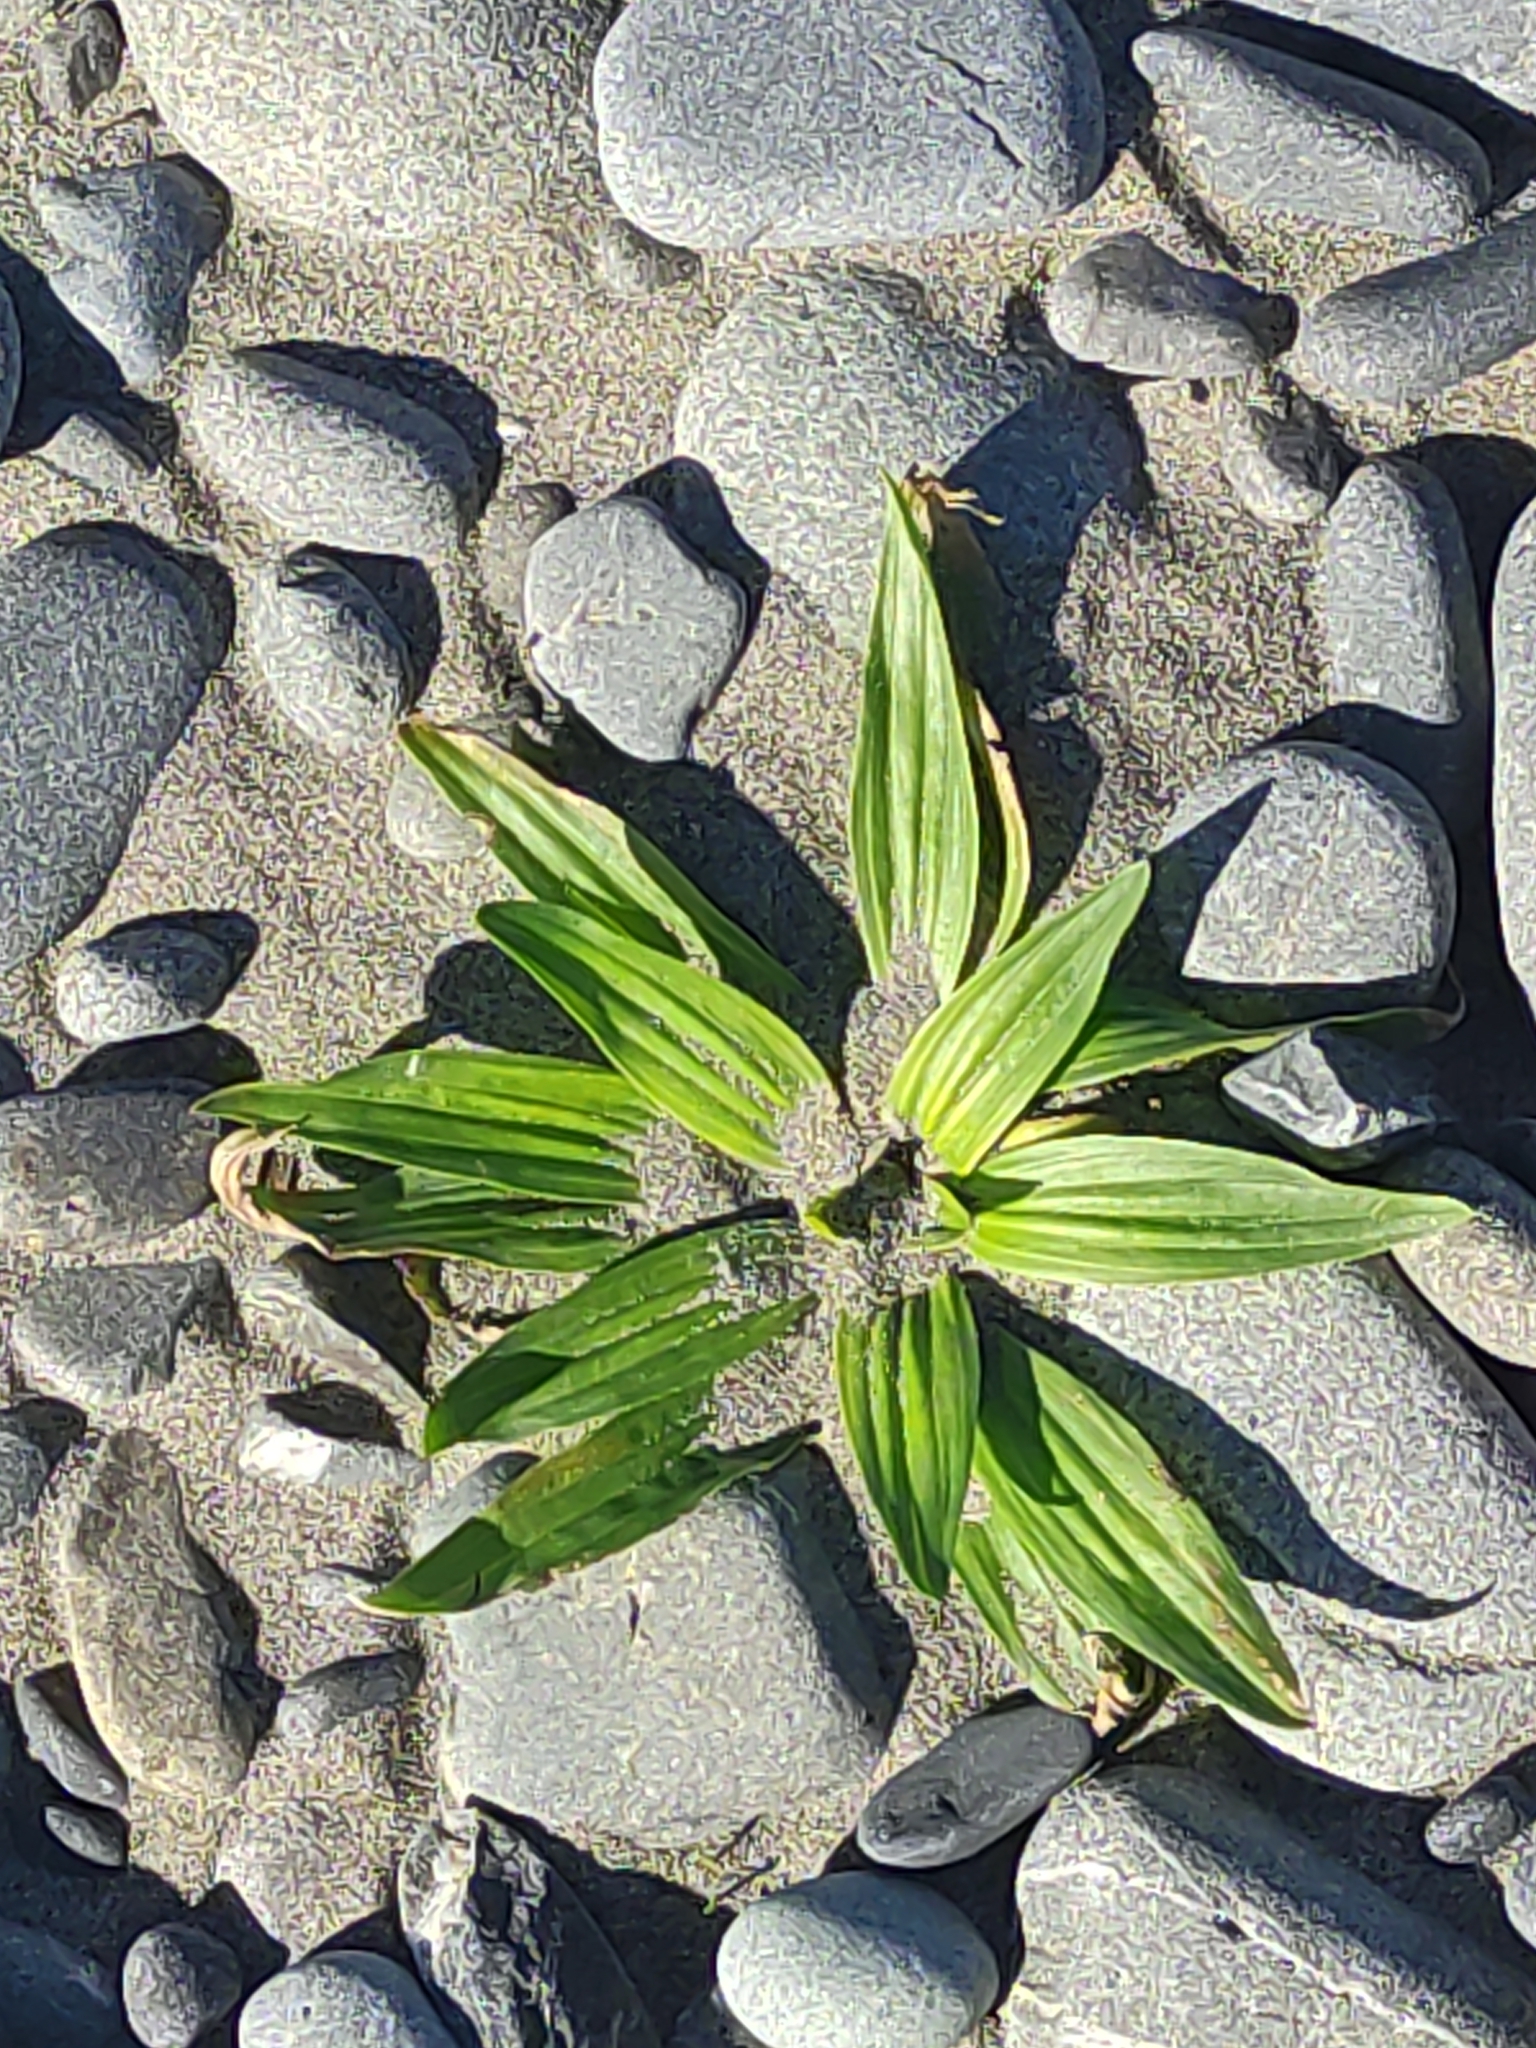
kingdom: Plantae
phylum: Tracheophyta
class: Magnoliopsida
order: Lamiales
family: Plantaginaceae
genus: Plantago
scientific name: Plantago lanceolata
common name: Ribwort plantain
